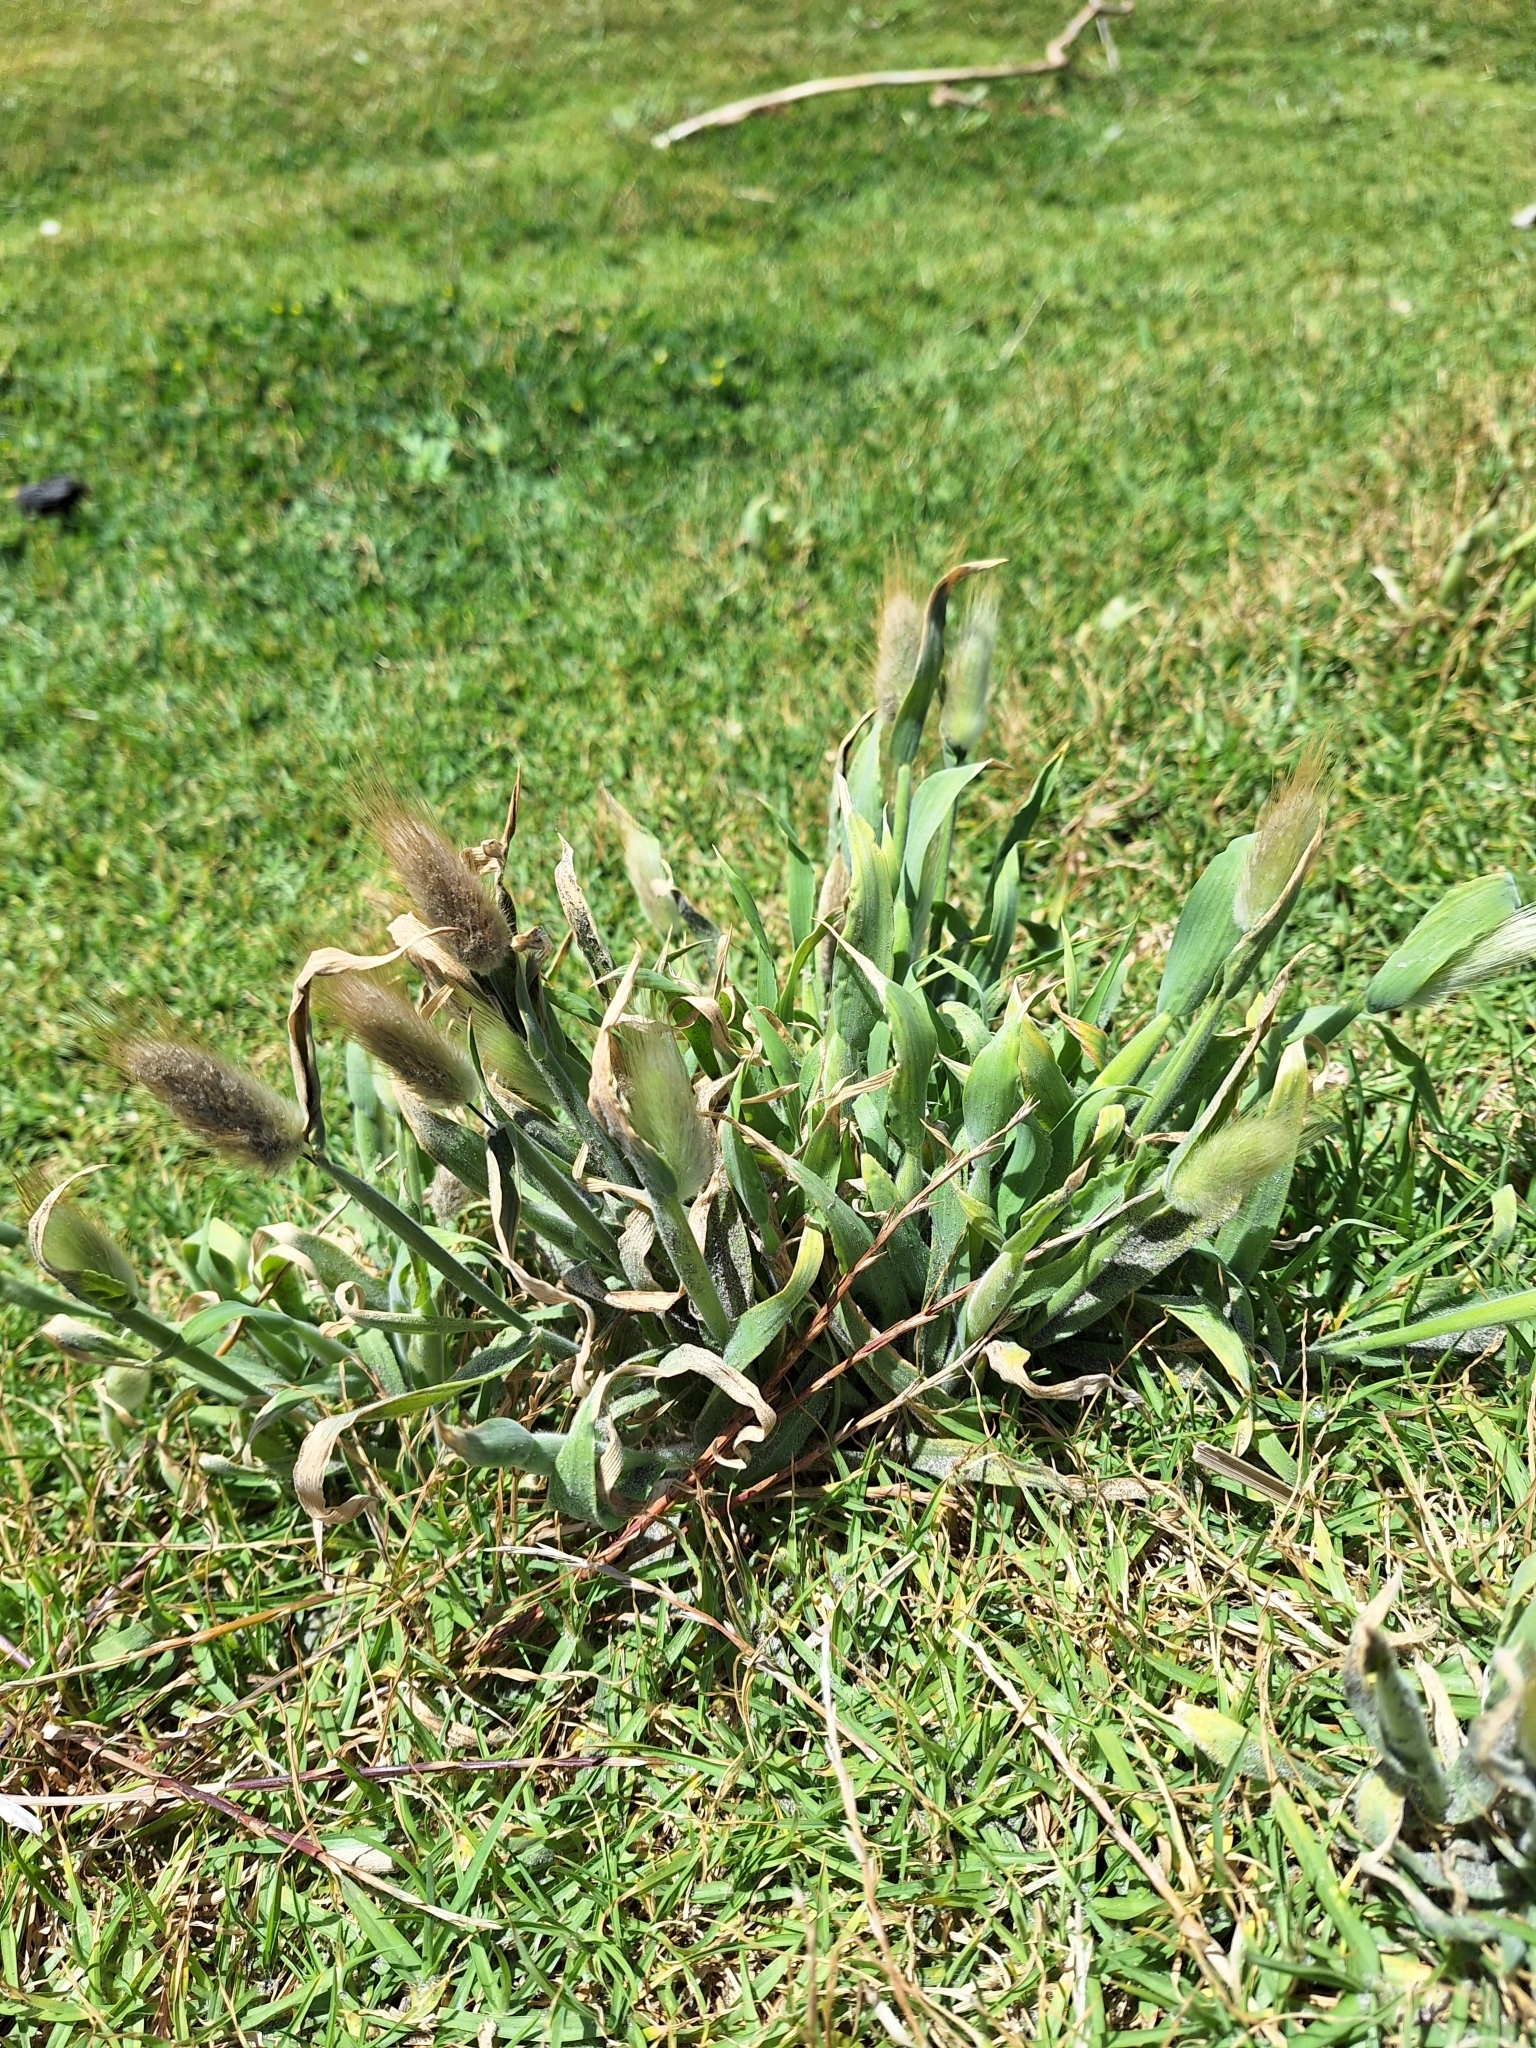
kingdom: Plantae
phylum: Tracheophyta
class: Liliopsida
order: Poales
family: Poaceae
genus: Lagurus
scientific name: Lagurus ovatus
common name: Hare's-tail
